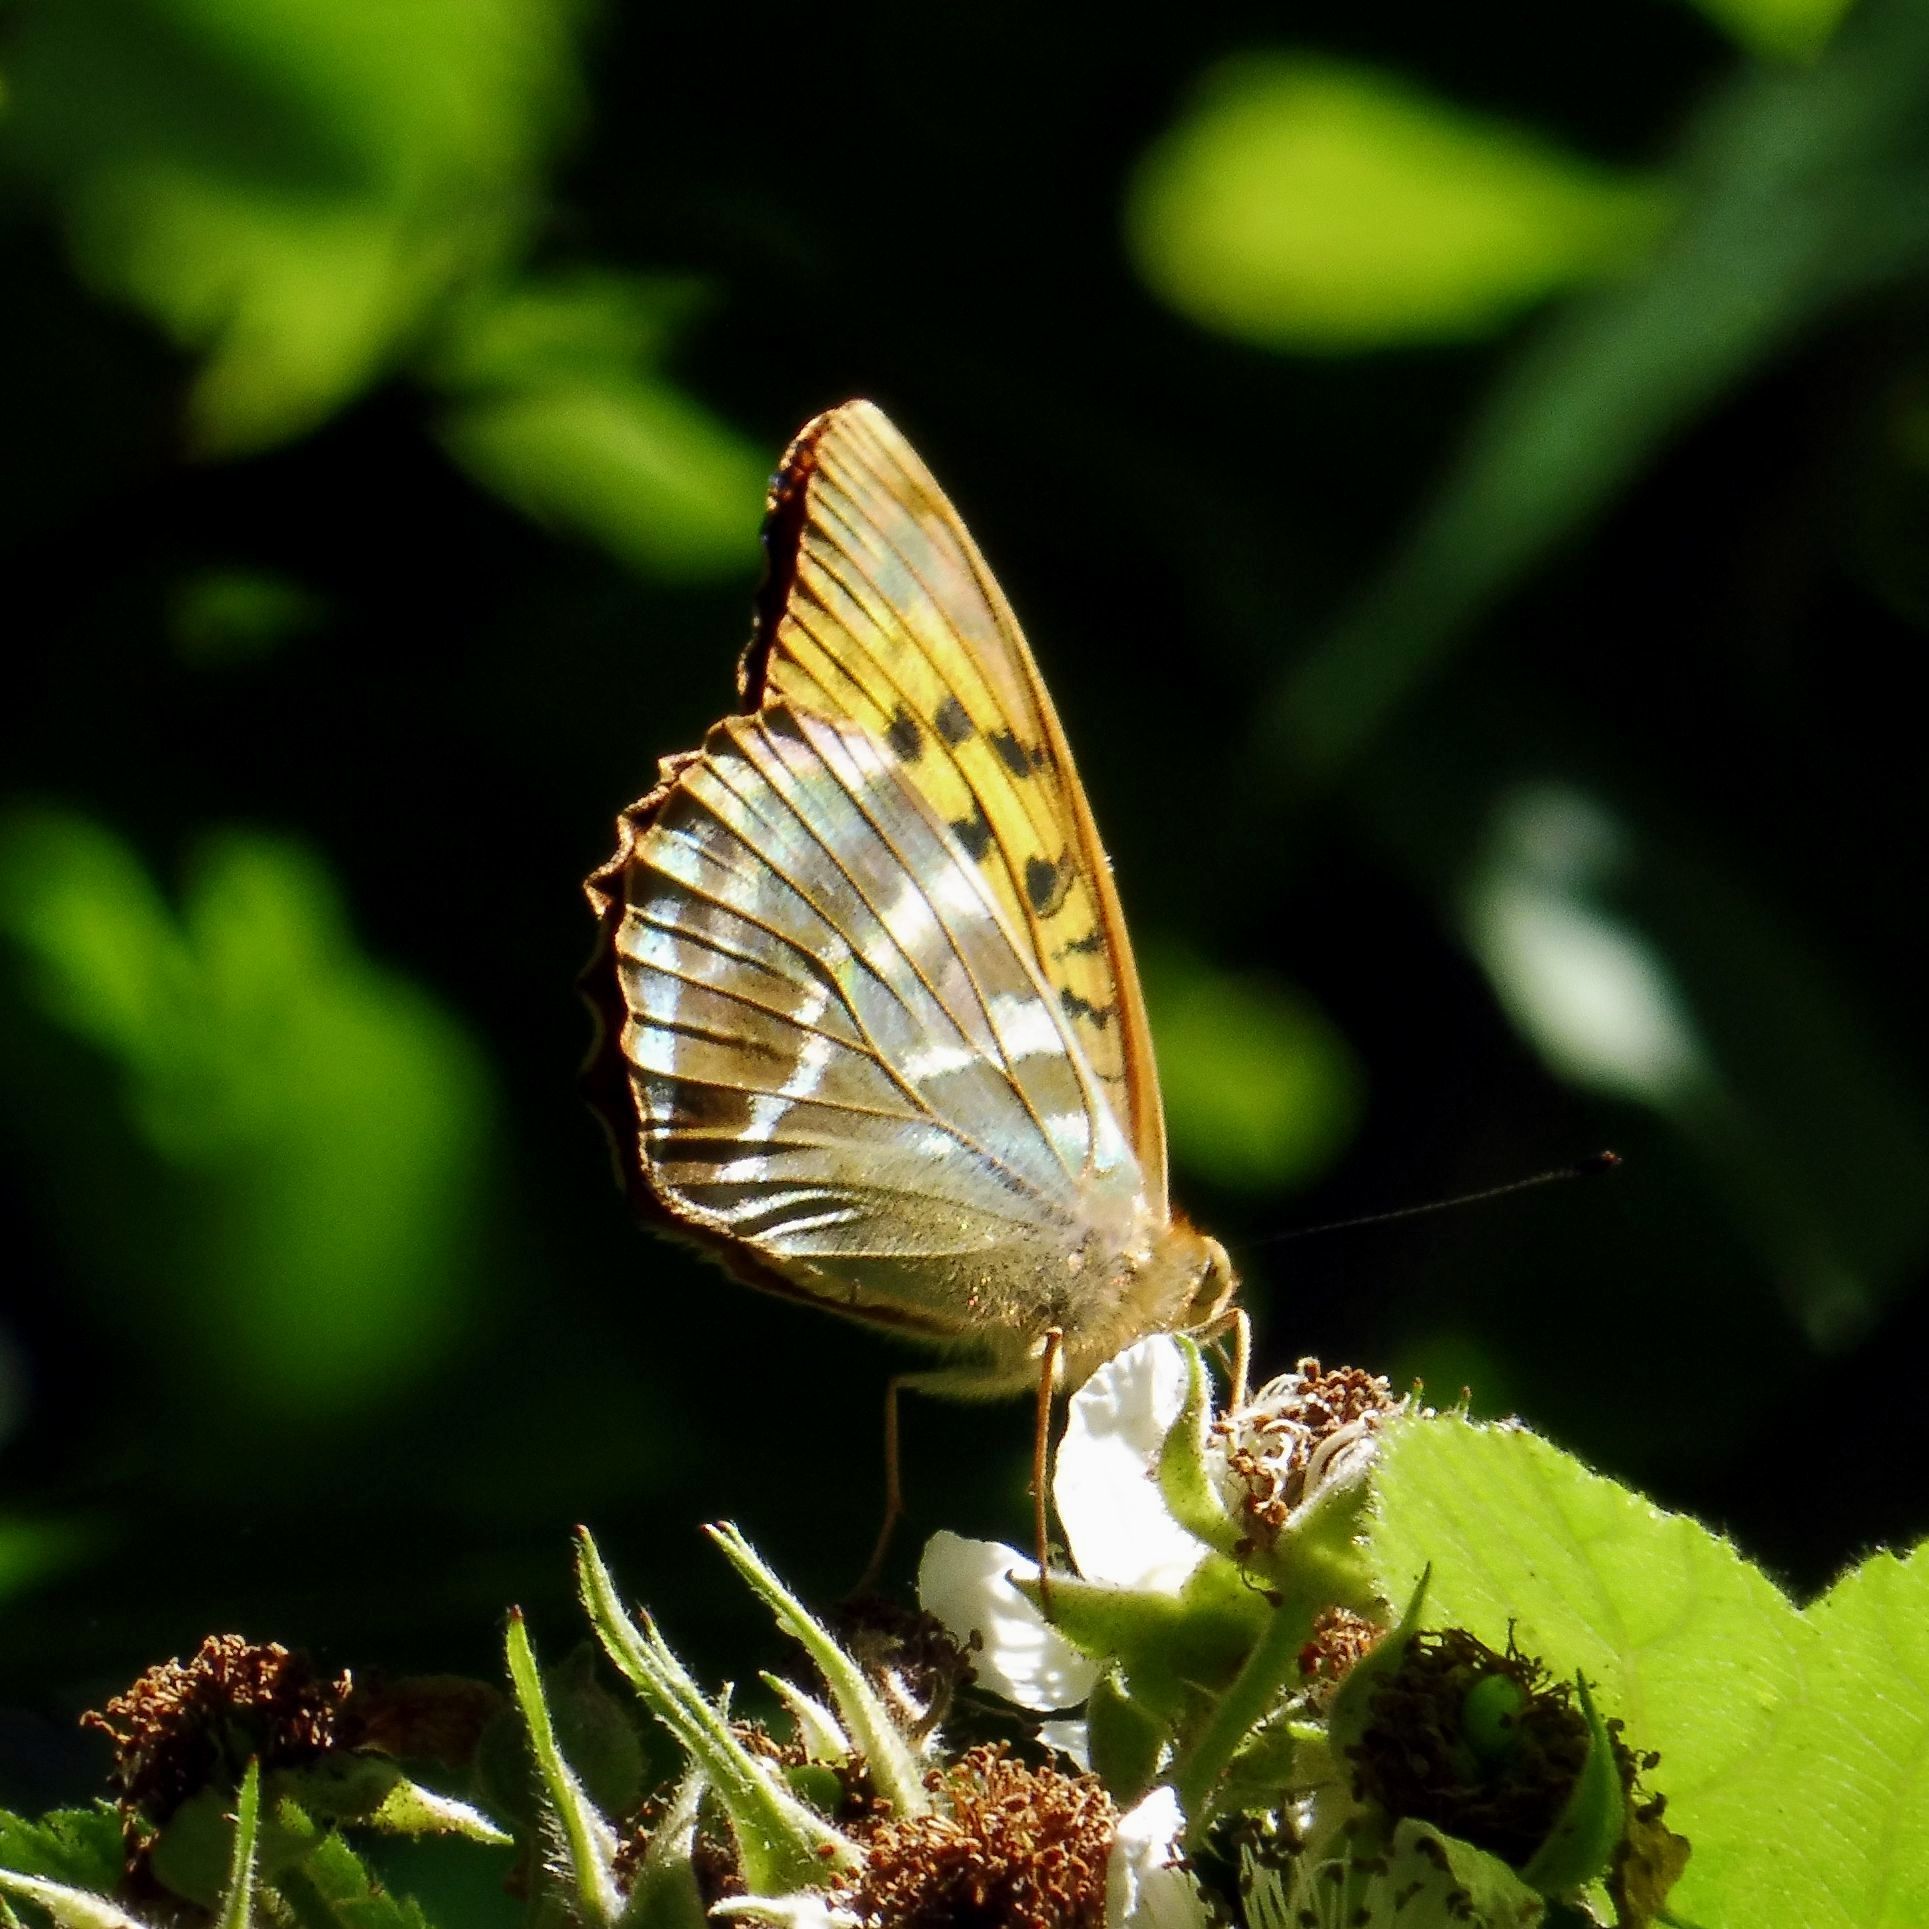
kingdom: Animalia
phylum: Arthropoda
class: Insecta
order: Lepidoptera
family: Nymphalidae
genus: Argynnis
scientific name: Argynnis paphia
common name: Silver-washed fritillary
